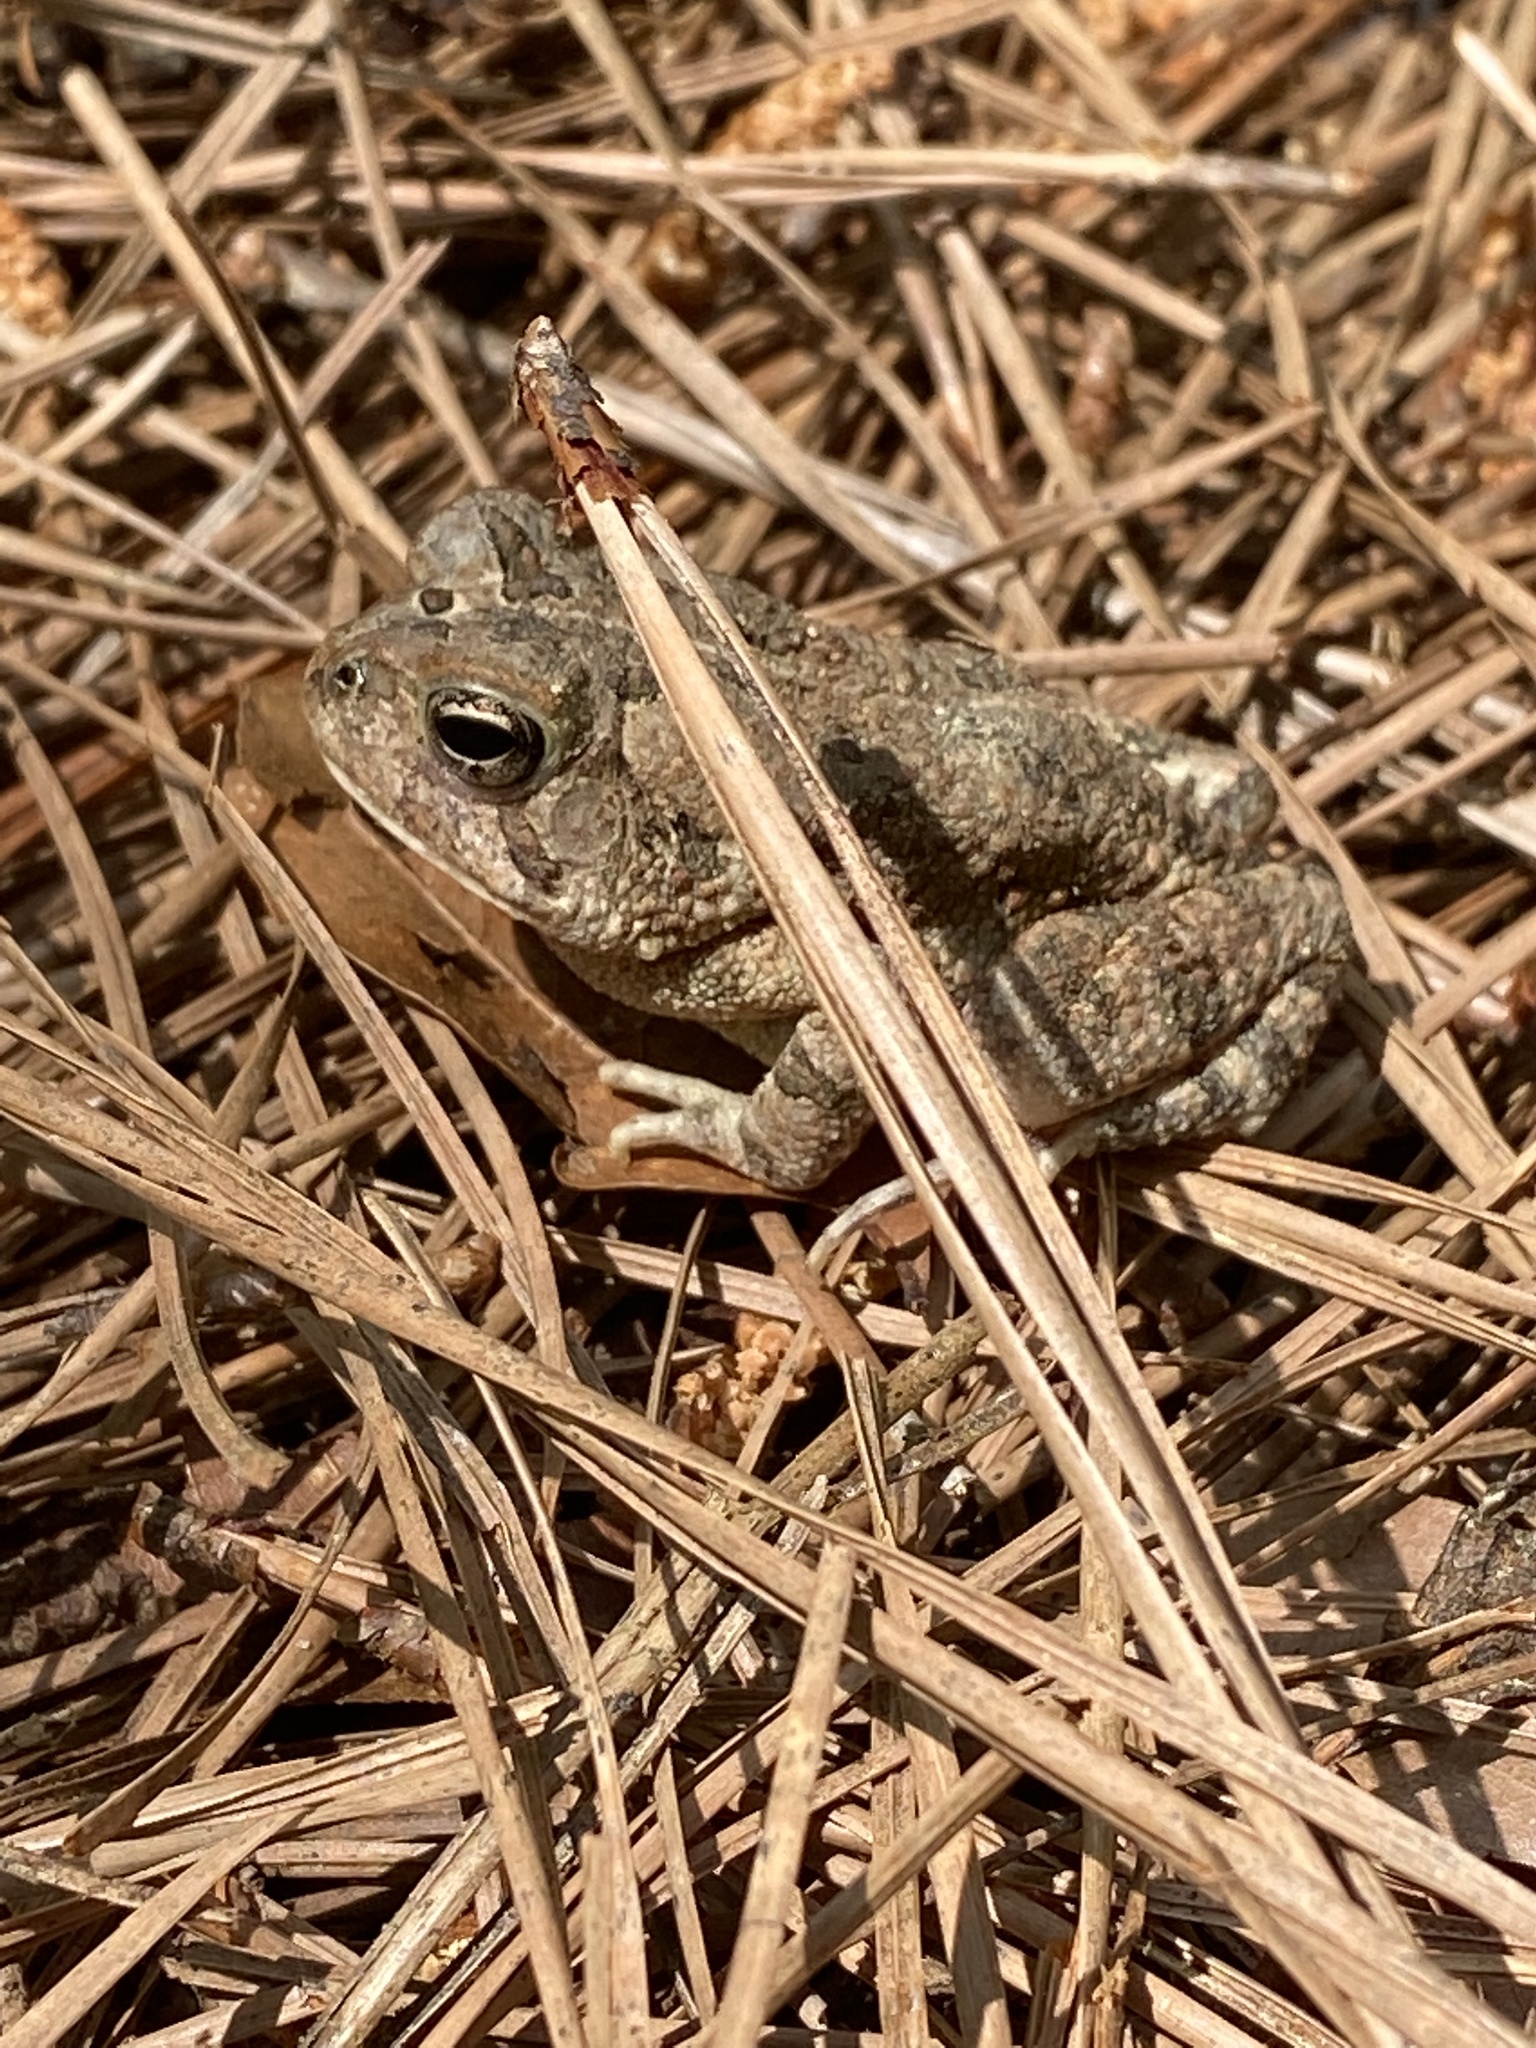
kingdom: Animalia
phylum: Chordata
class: Amphibia
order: Anura
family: Bufonidae
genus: Anaxyrus
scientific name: Anaxyrus fowleri
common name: Fowler's toad
